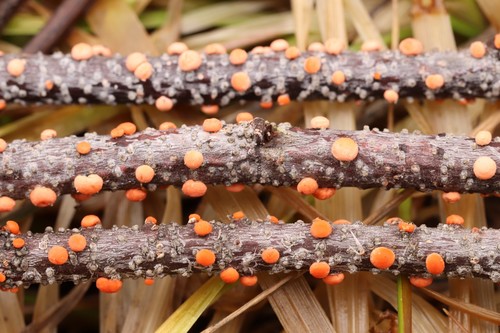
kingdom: Fungi
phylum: Ascomycota
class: Sordariomycetes
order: Hypocreales
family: Nectriaceae
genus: Nectria
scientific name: Nectria cinnabarina
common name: Coral spot
